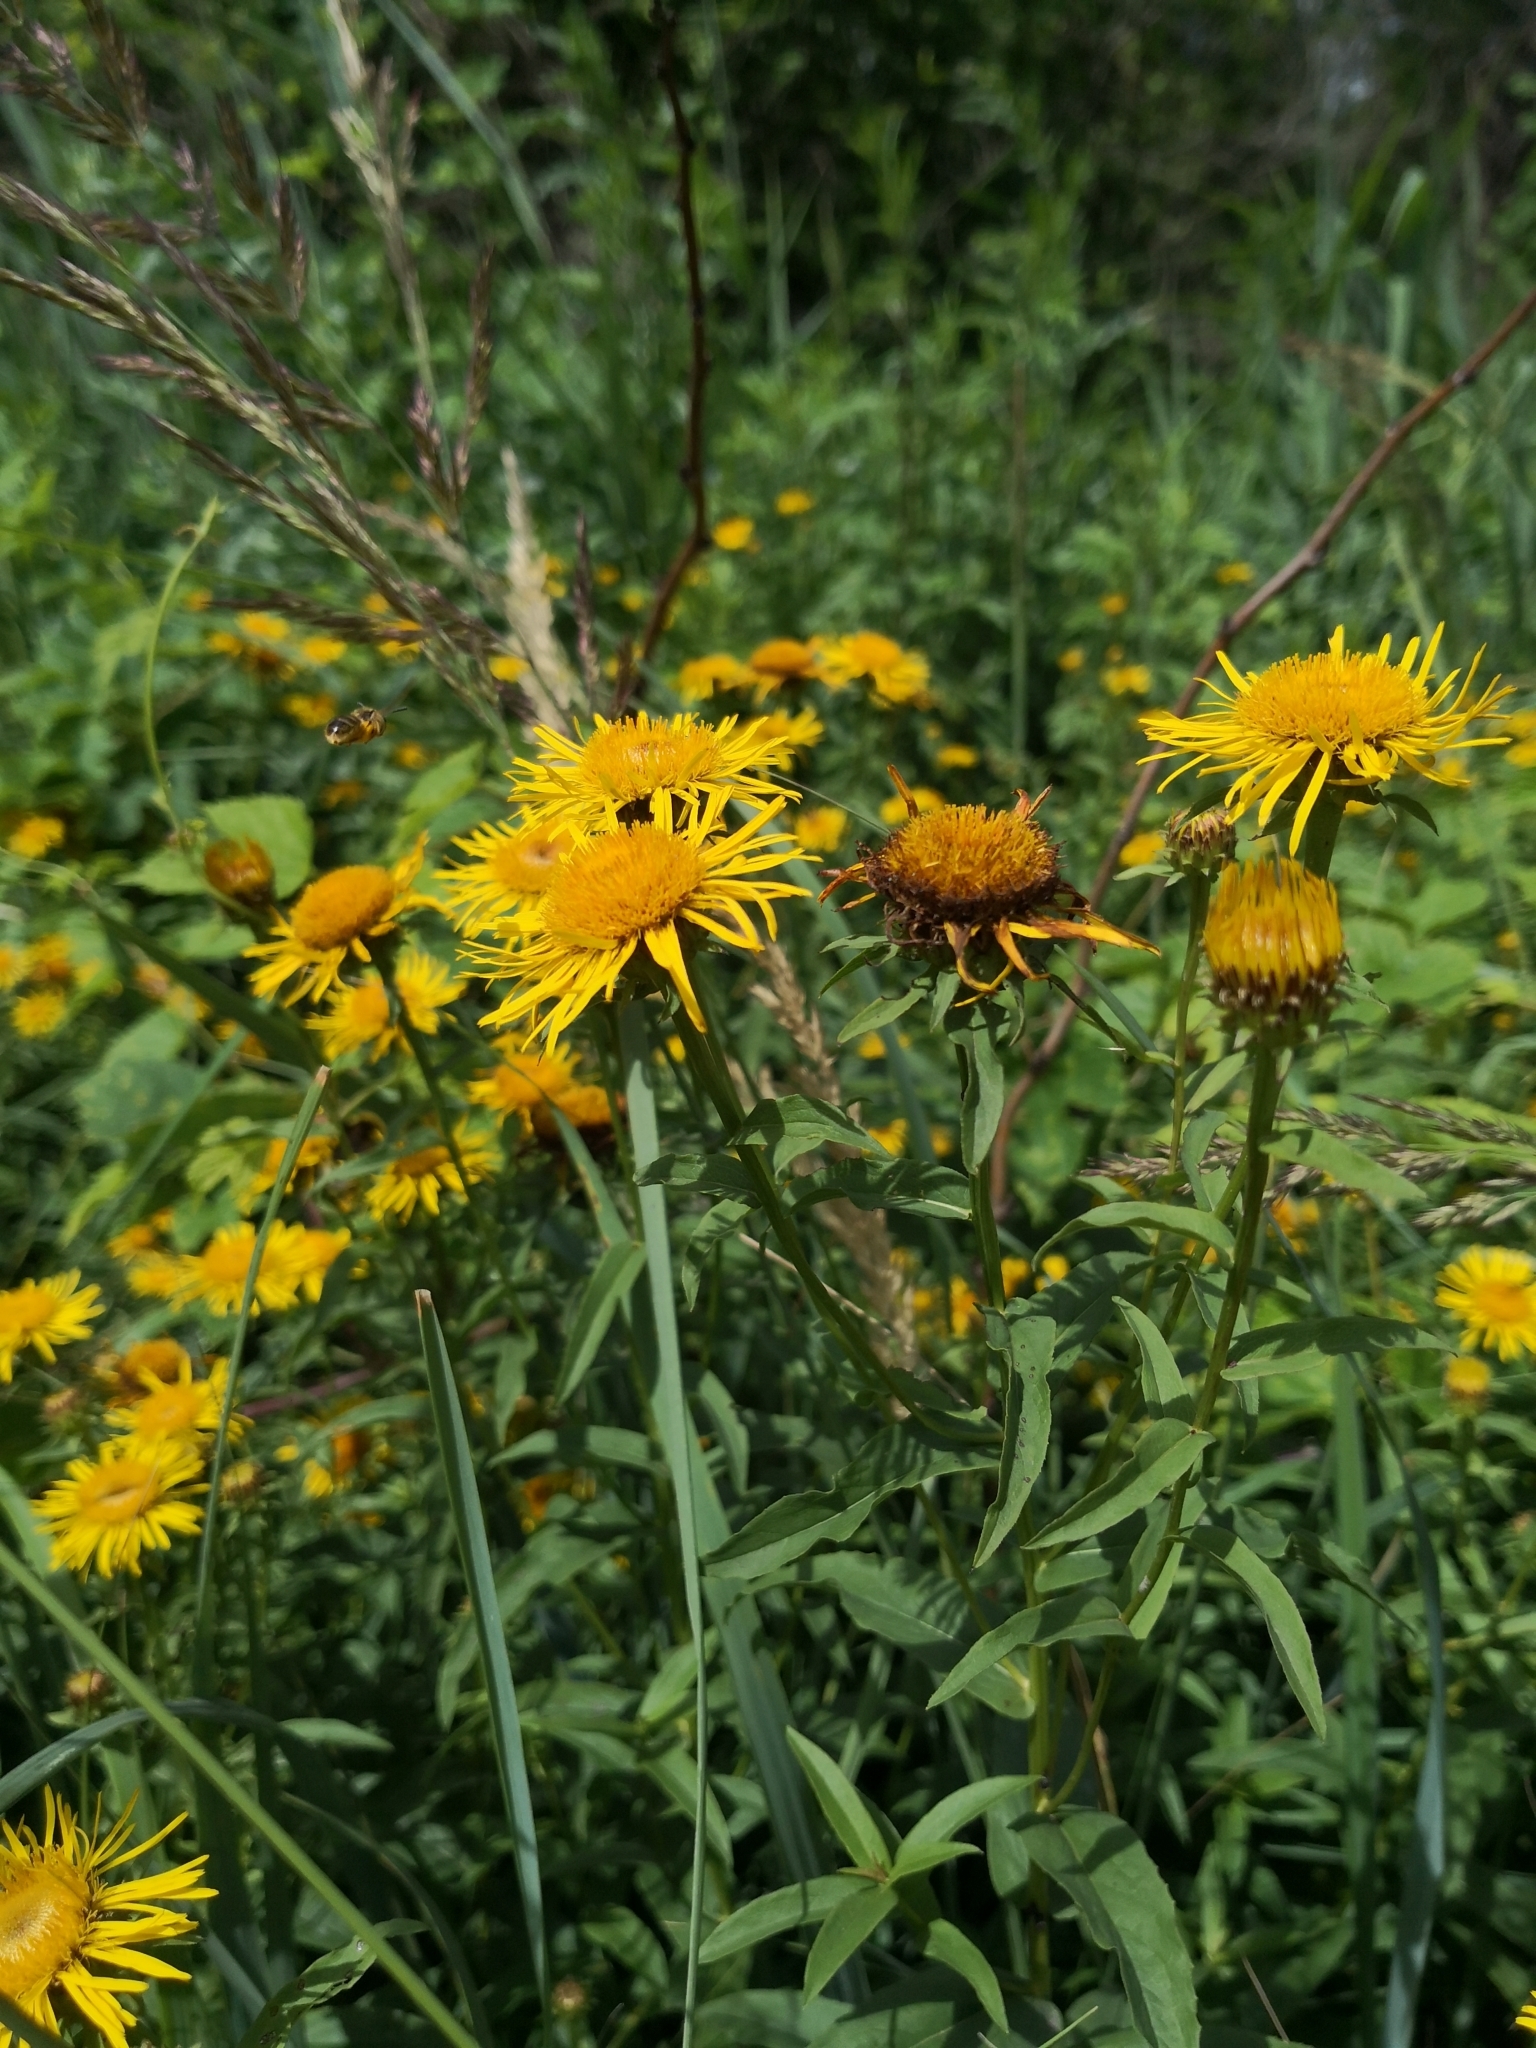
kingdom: Plantae
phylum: Tracheophyta
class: Magnoliopsida
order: Asterales
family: Asteraceae
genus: Pentanema
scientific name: Pentanema salicinum
